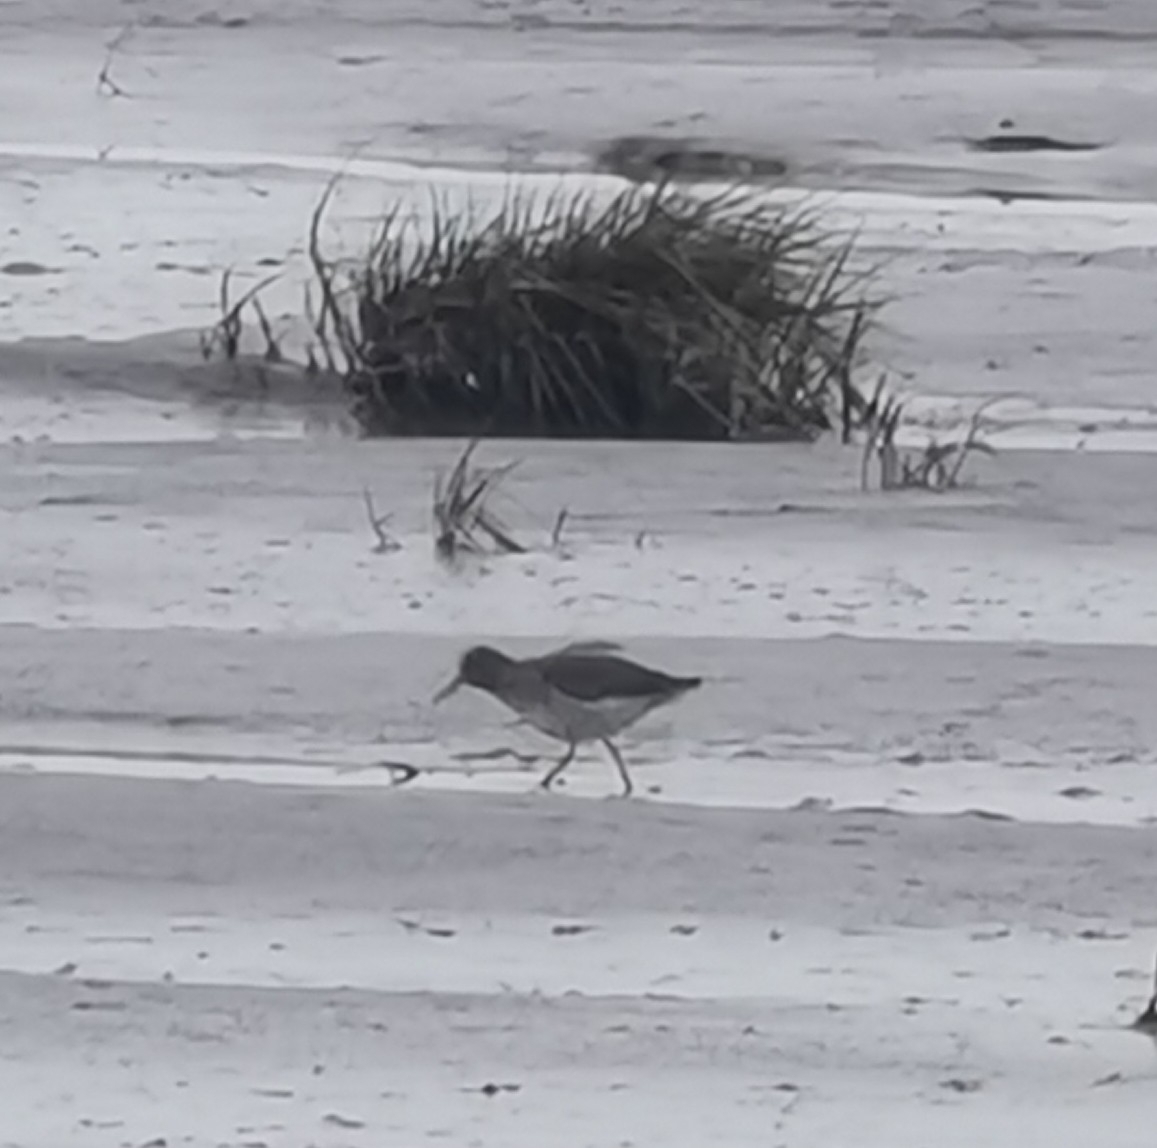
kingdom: Animalia
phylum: Chordata
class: Aves
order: Charadriiformes
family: Scolopacidae
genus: Tringa
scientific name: Tringa totanus
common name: Common redshank
